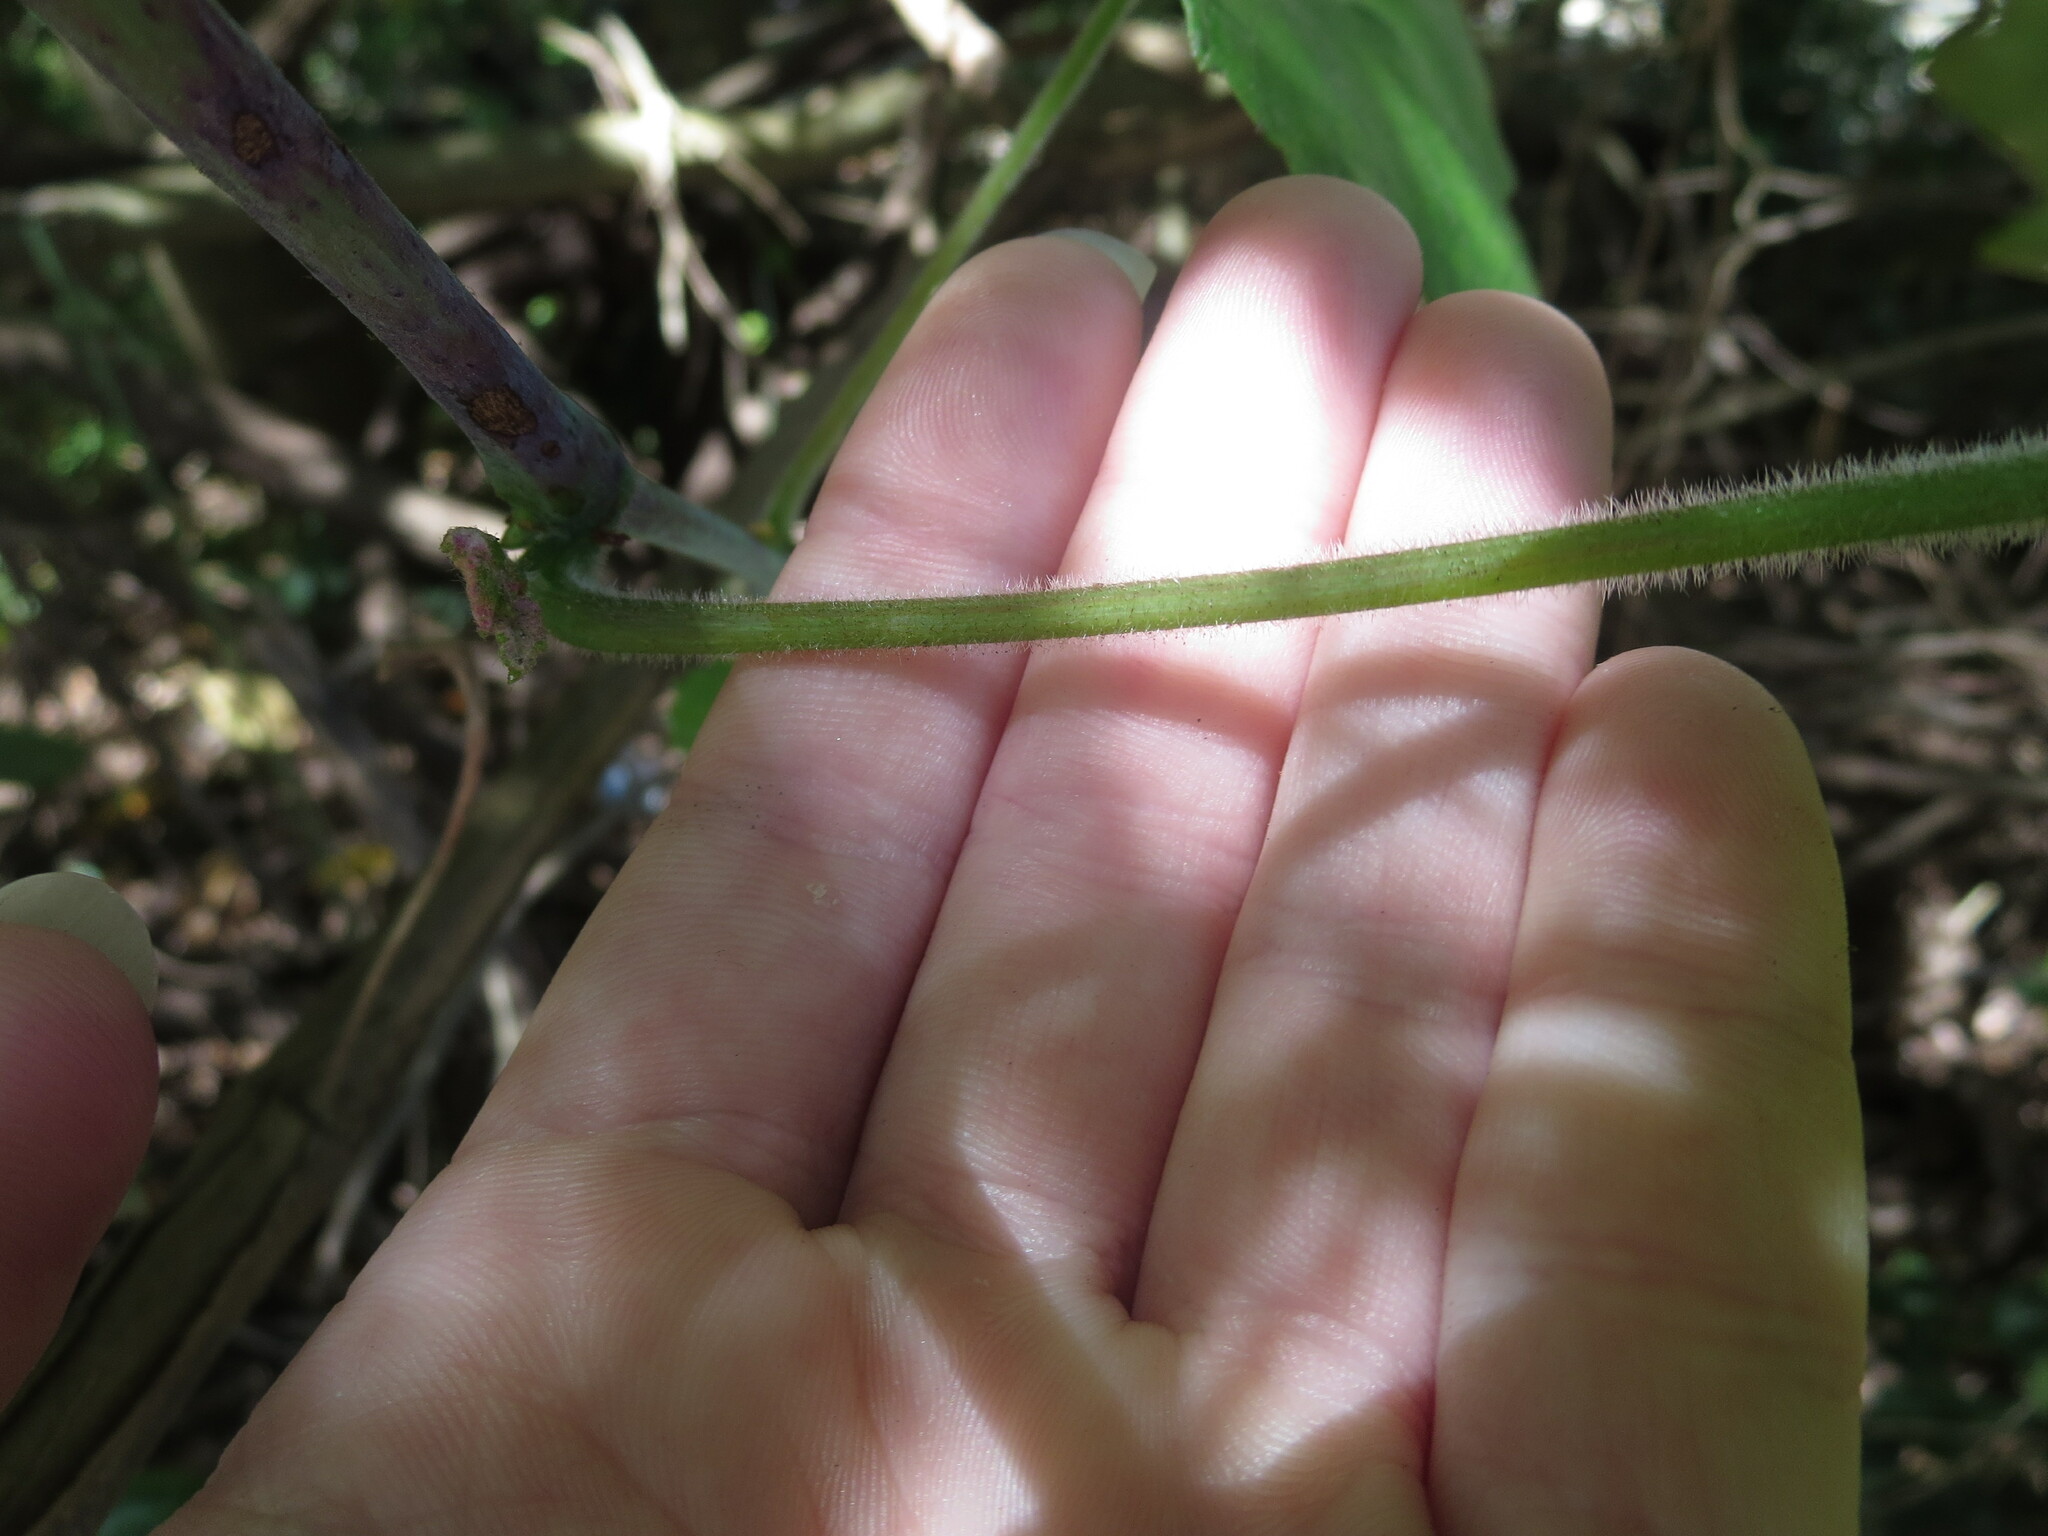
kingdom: Plantae
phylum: Tracheophyta
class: Magnoliopsida
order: Vitales
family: Vitaceae
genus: Vitis
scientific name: Vitis cinerea
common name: Ashy grape
